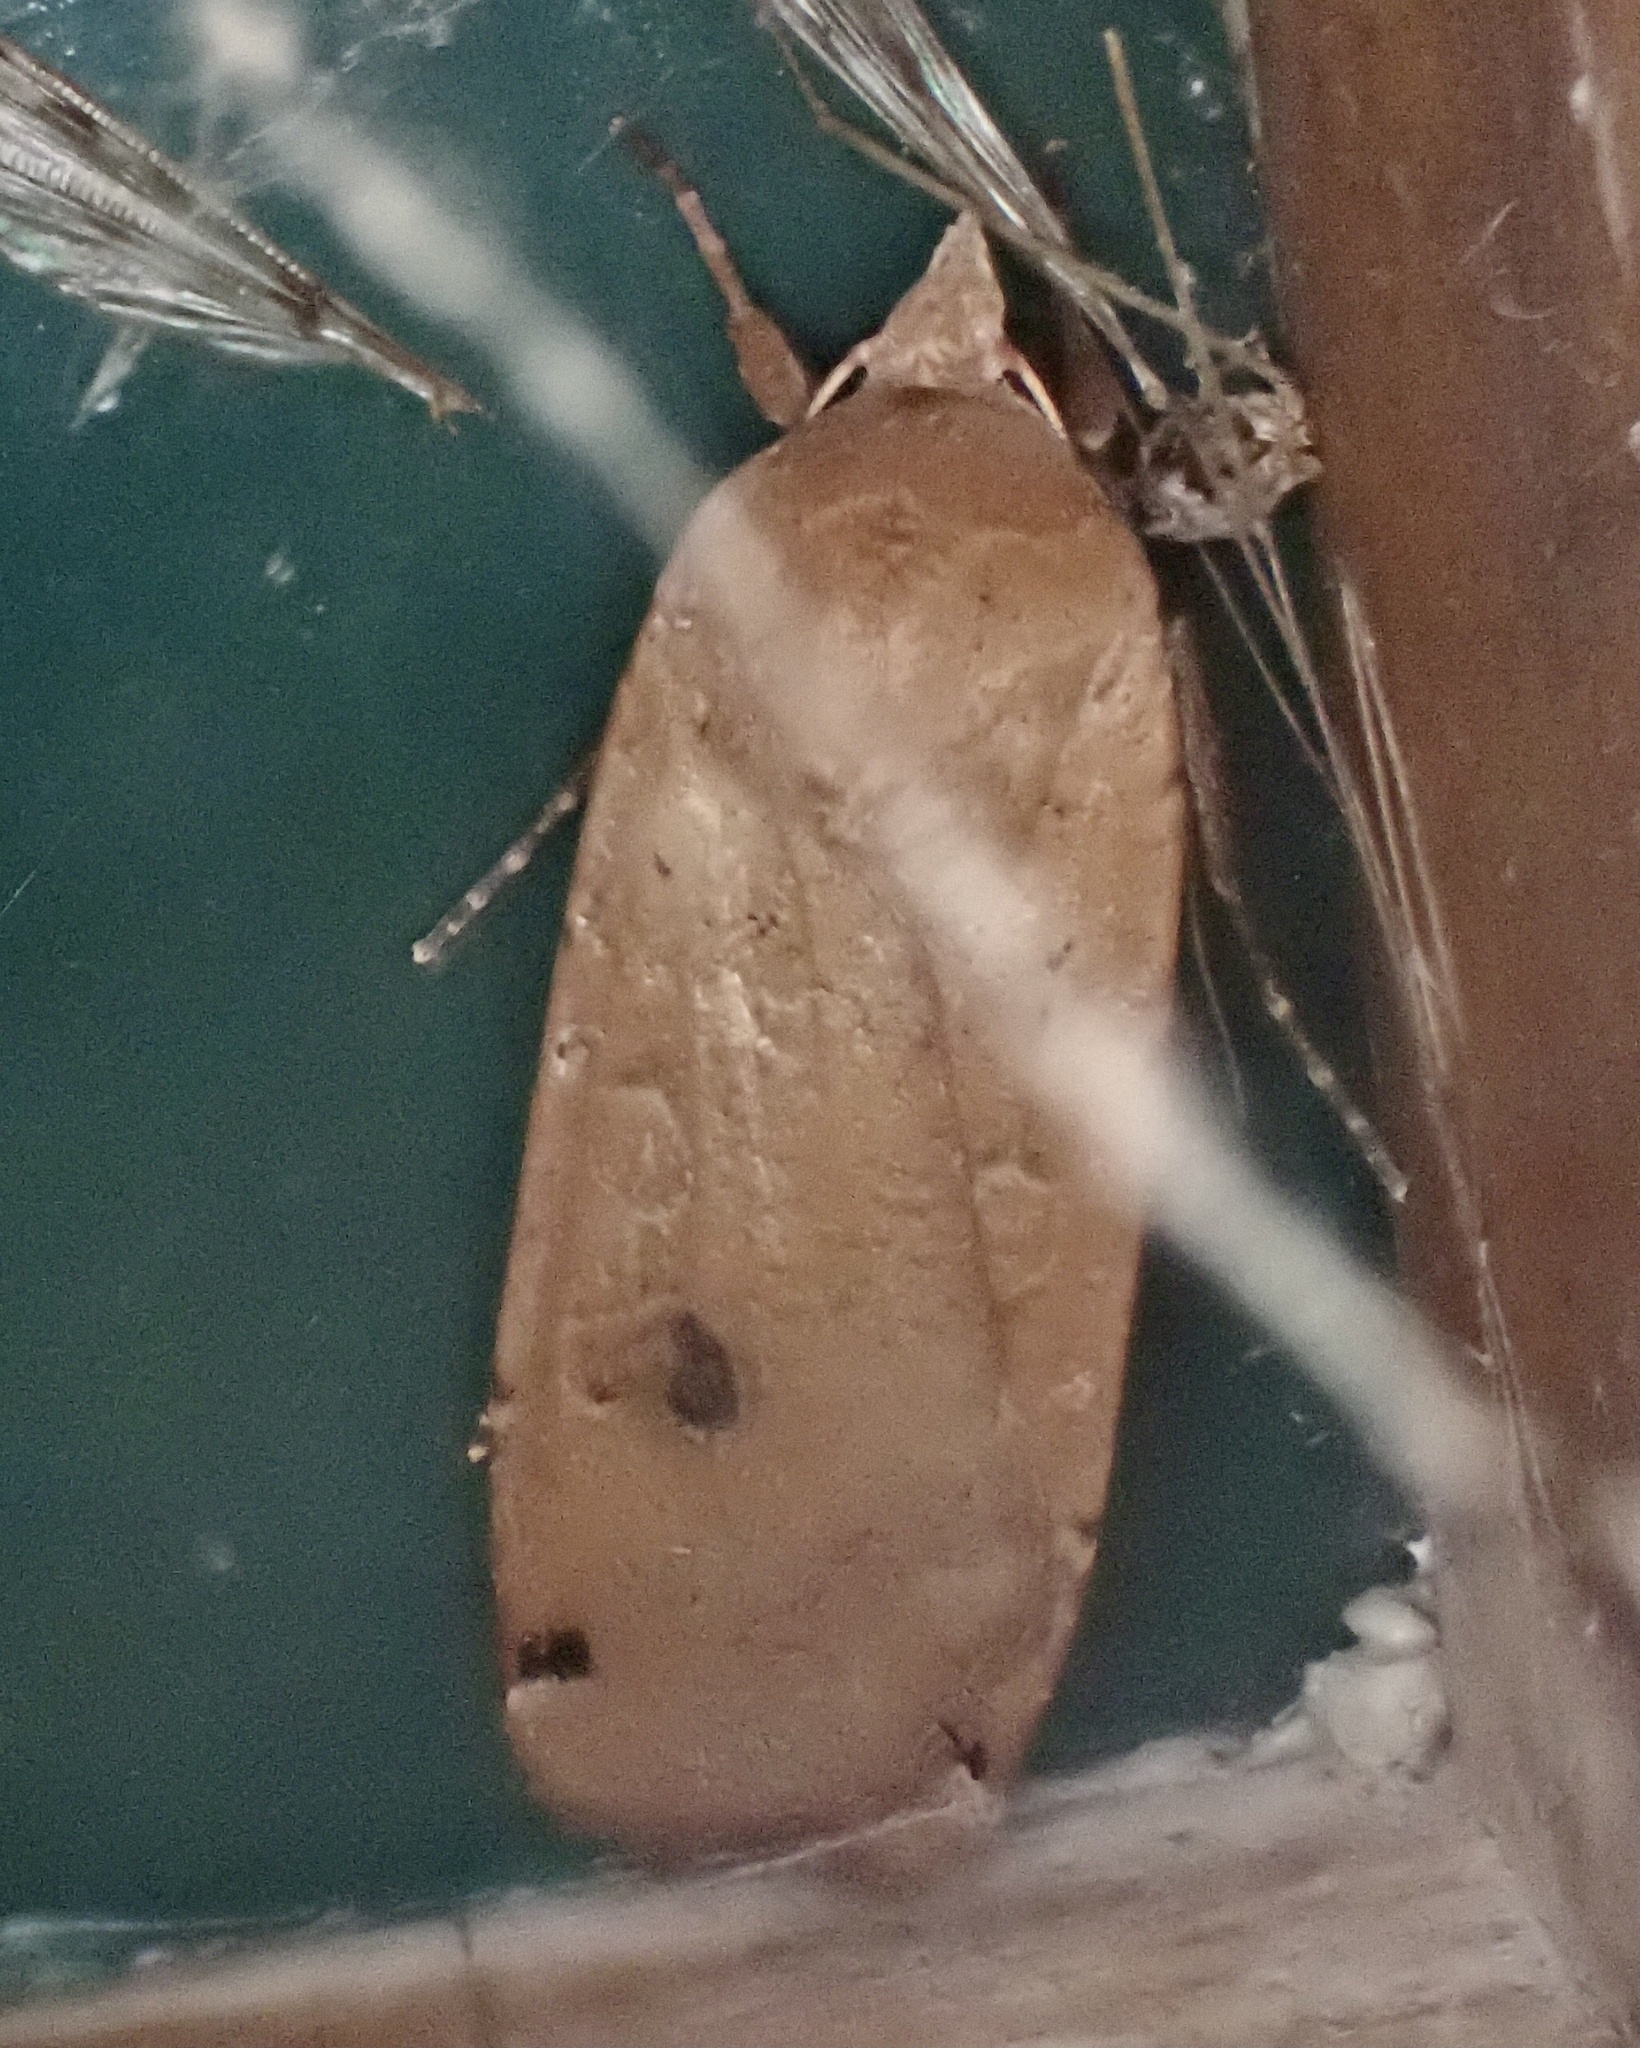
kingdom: Animalia
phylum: Arthropoda
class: Insecta
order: Lepidoptera
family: Noctuidae
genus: Noctua
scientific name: Noctua pronuba
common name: Large yellow underwing
